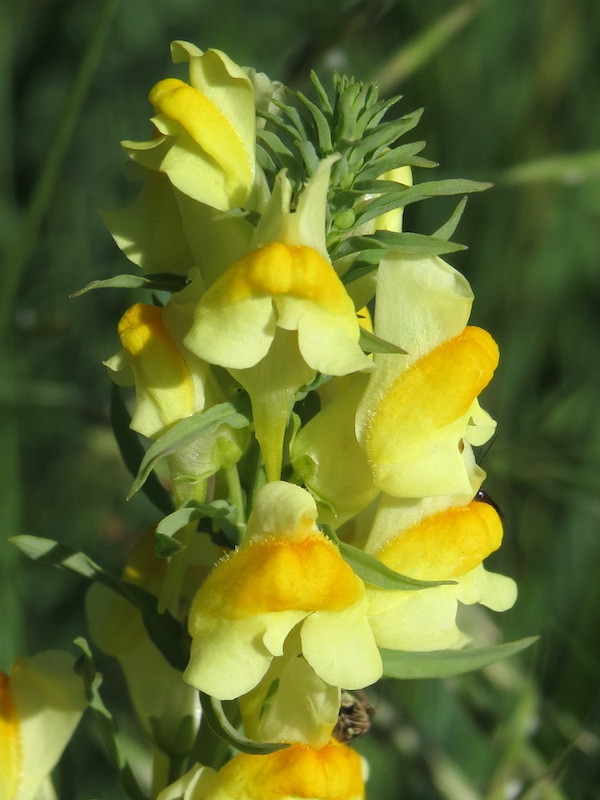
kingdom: Plantae
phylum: Tracheophyta
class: Magnoliopsida
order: Lamiales
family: Plantaginaceae
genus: Linaria
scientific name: Linaria vulgaris
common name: Butter and eggs
